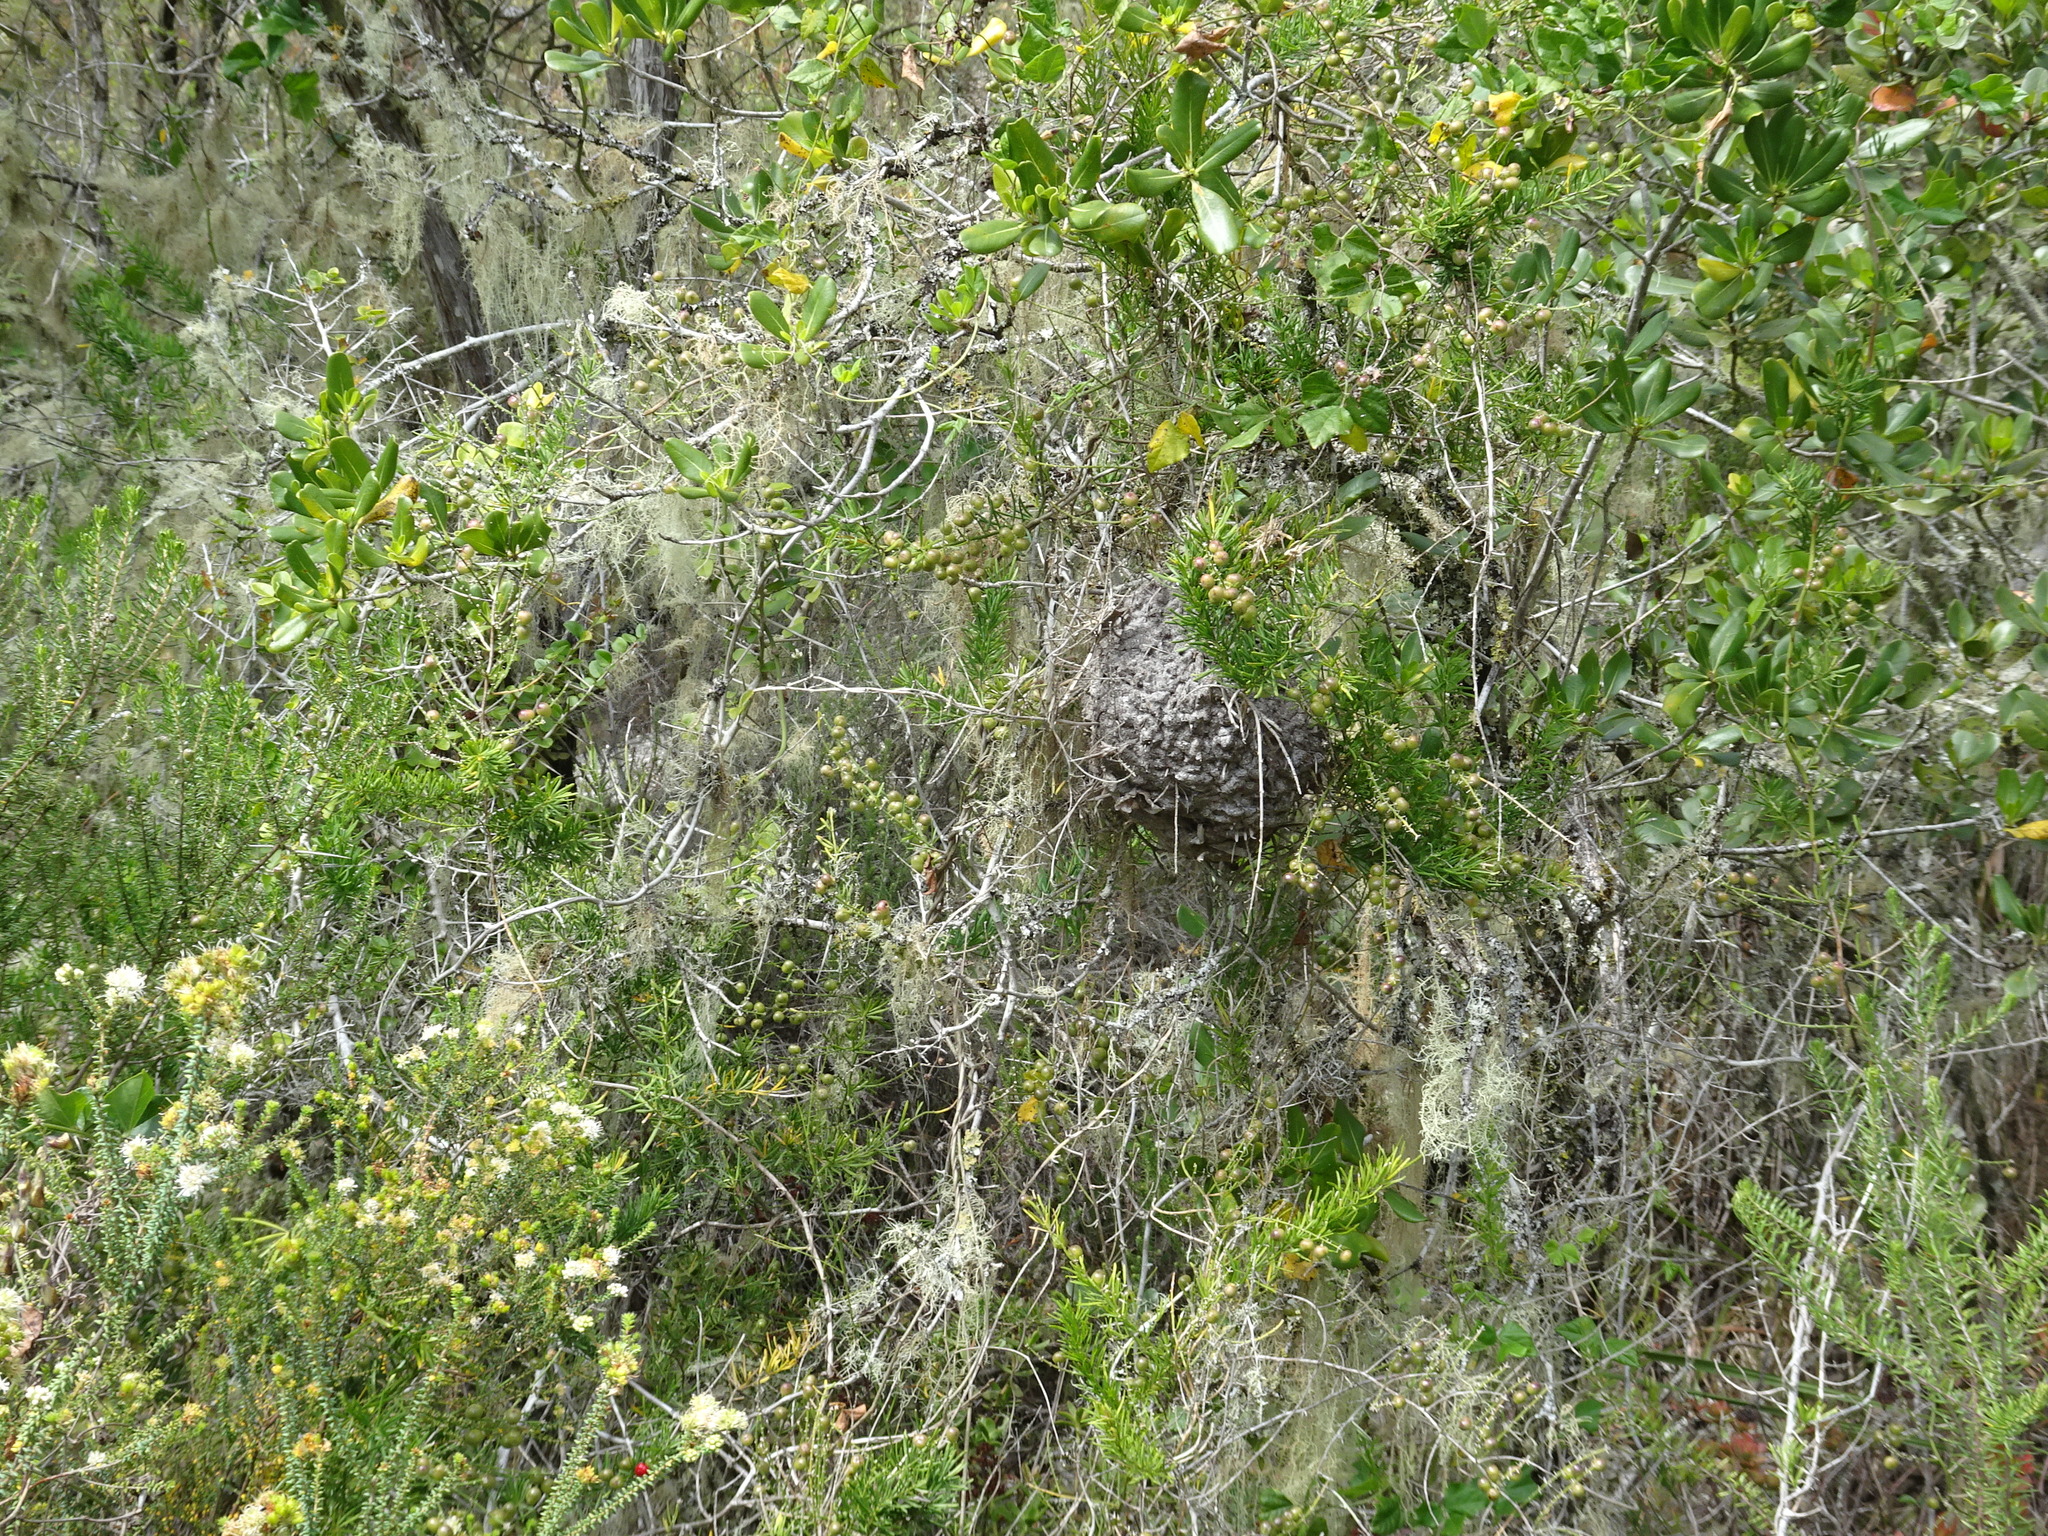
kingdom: Animalia
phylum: Arthropoda
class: Insecta
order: Hymenoptera
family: Formicidae
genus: Crematogaster
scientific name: Crematogaster peringueyi
